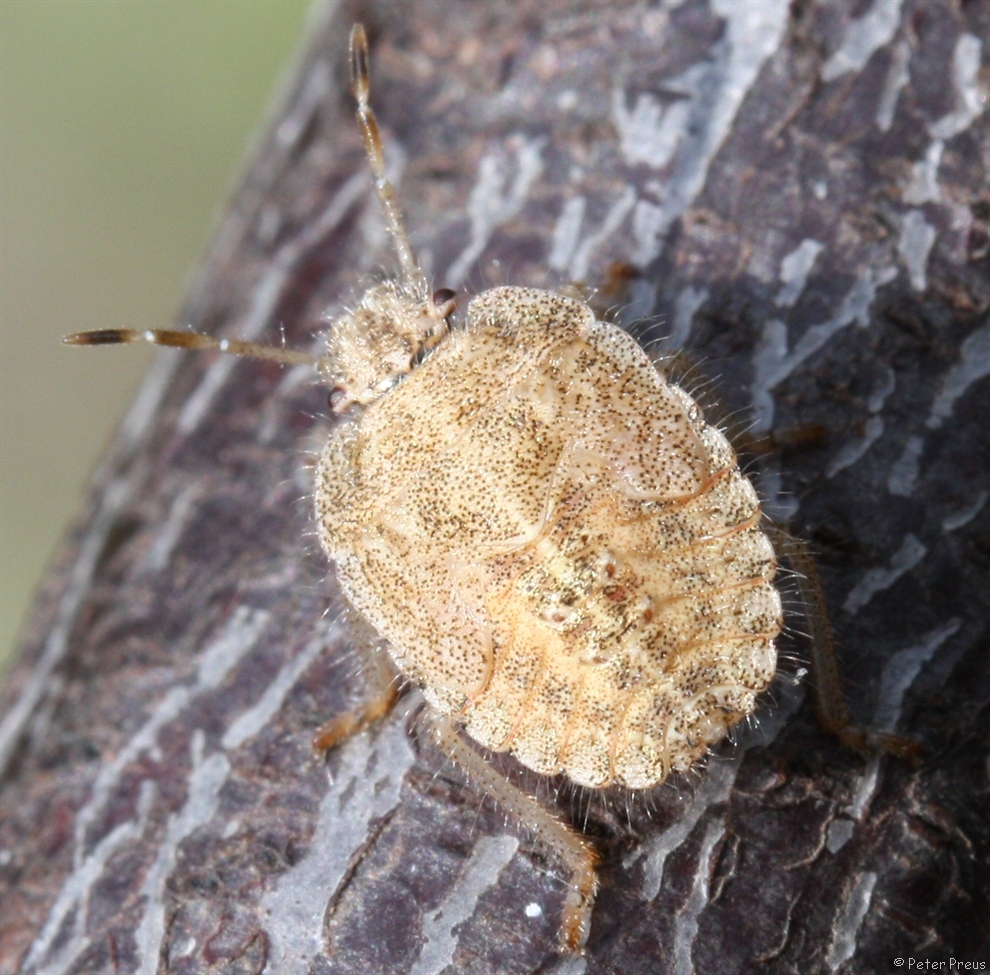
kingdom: Animalia
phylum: Arthropoda
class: Insecta
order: Hemiptera
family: Pentatomidae
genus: Dolycoris
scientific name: Dolycoris baccarum
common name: Sloe bug
